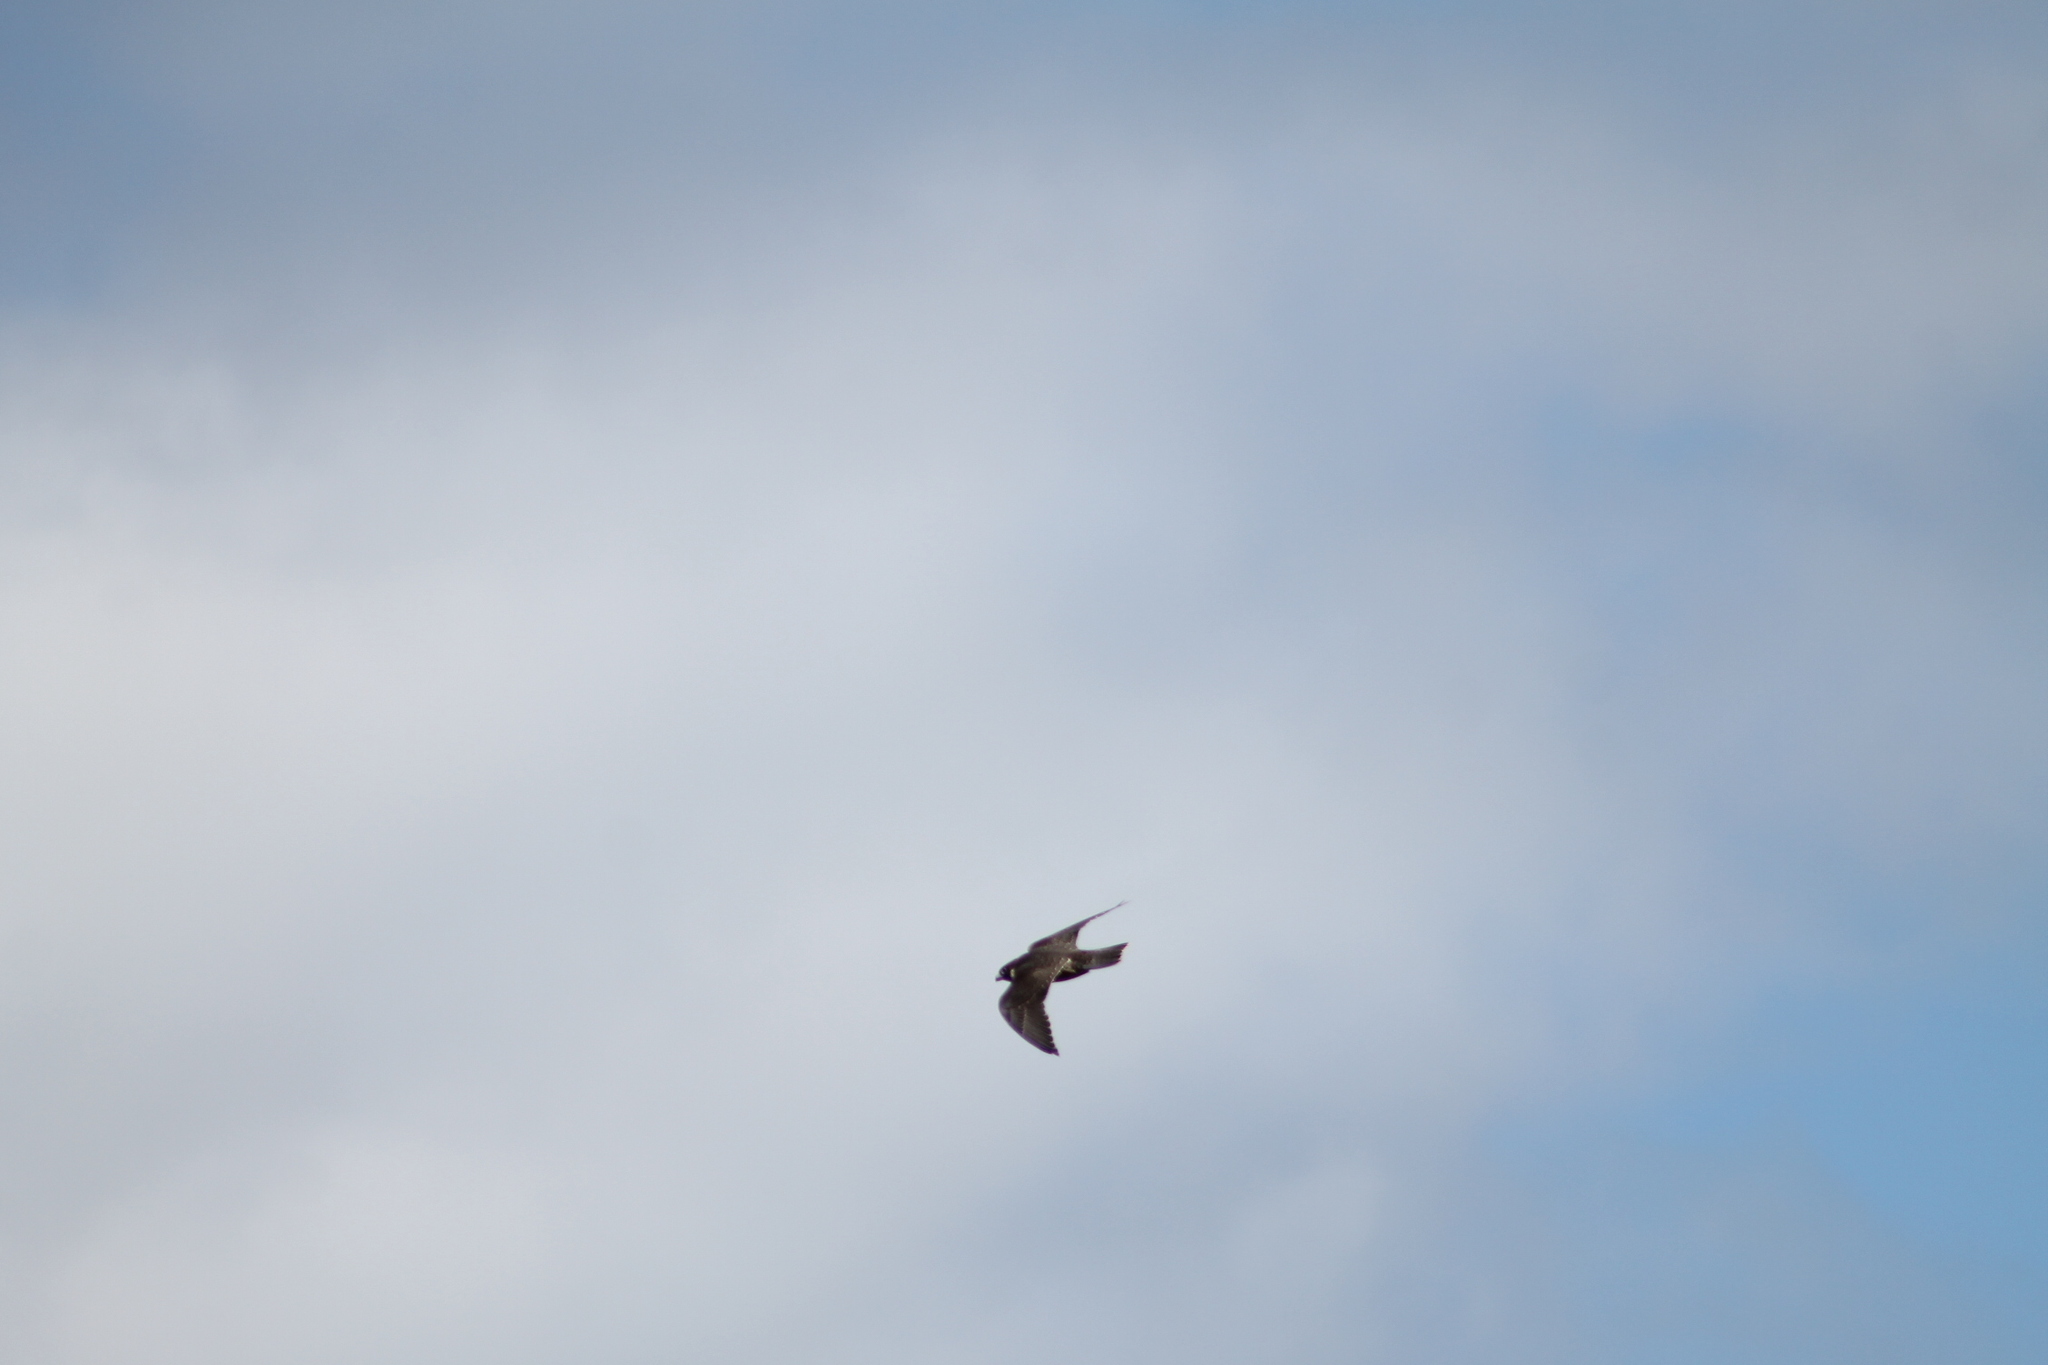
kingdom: Animalia
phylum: Chordata
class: Aves
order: Falconiformes
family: Falconidae
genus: Falco
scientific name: Falco longipennis
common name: Australian hobby
